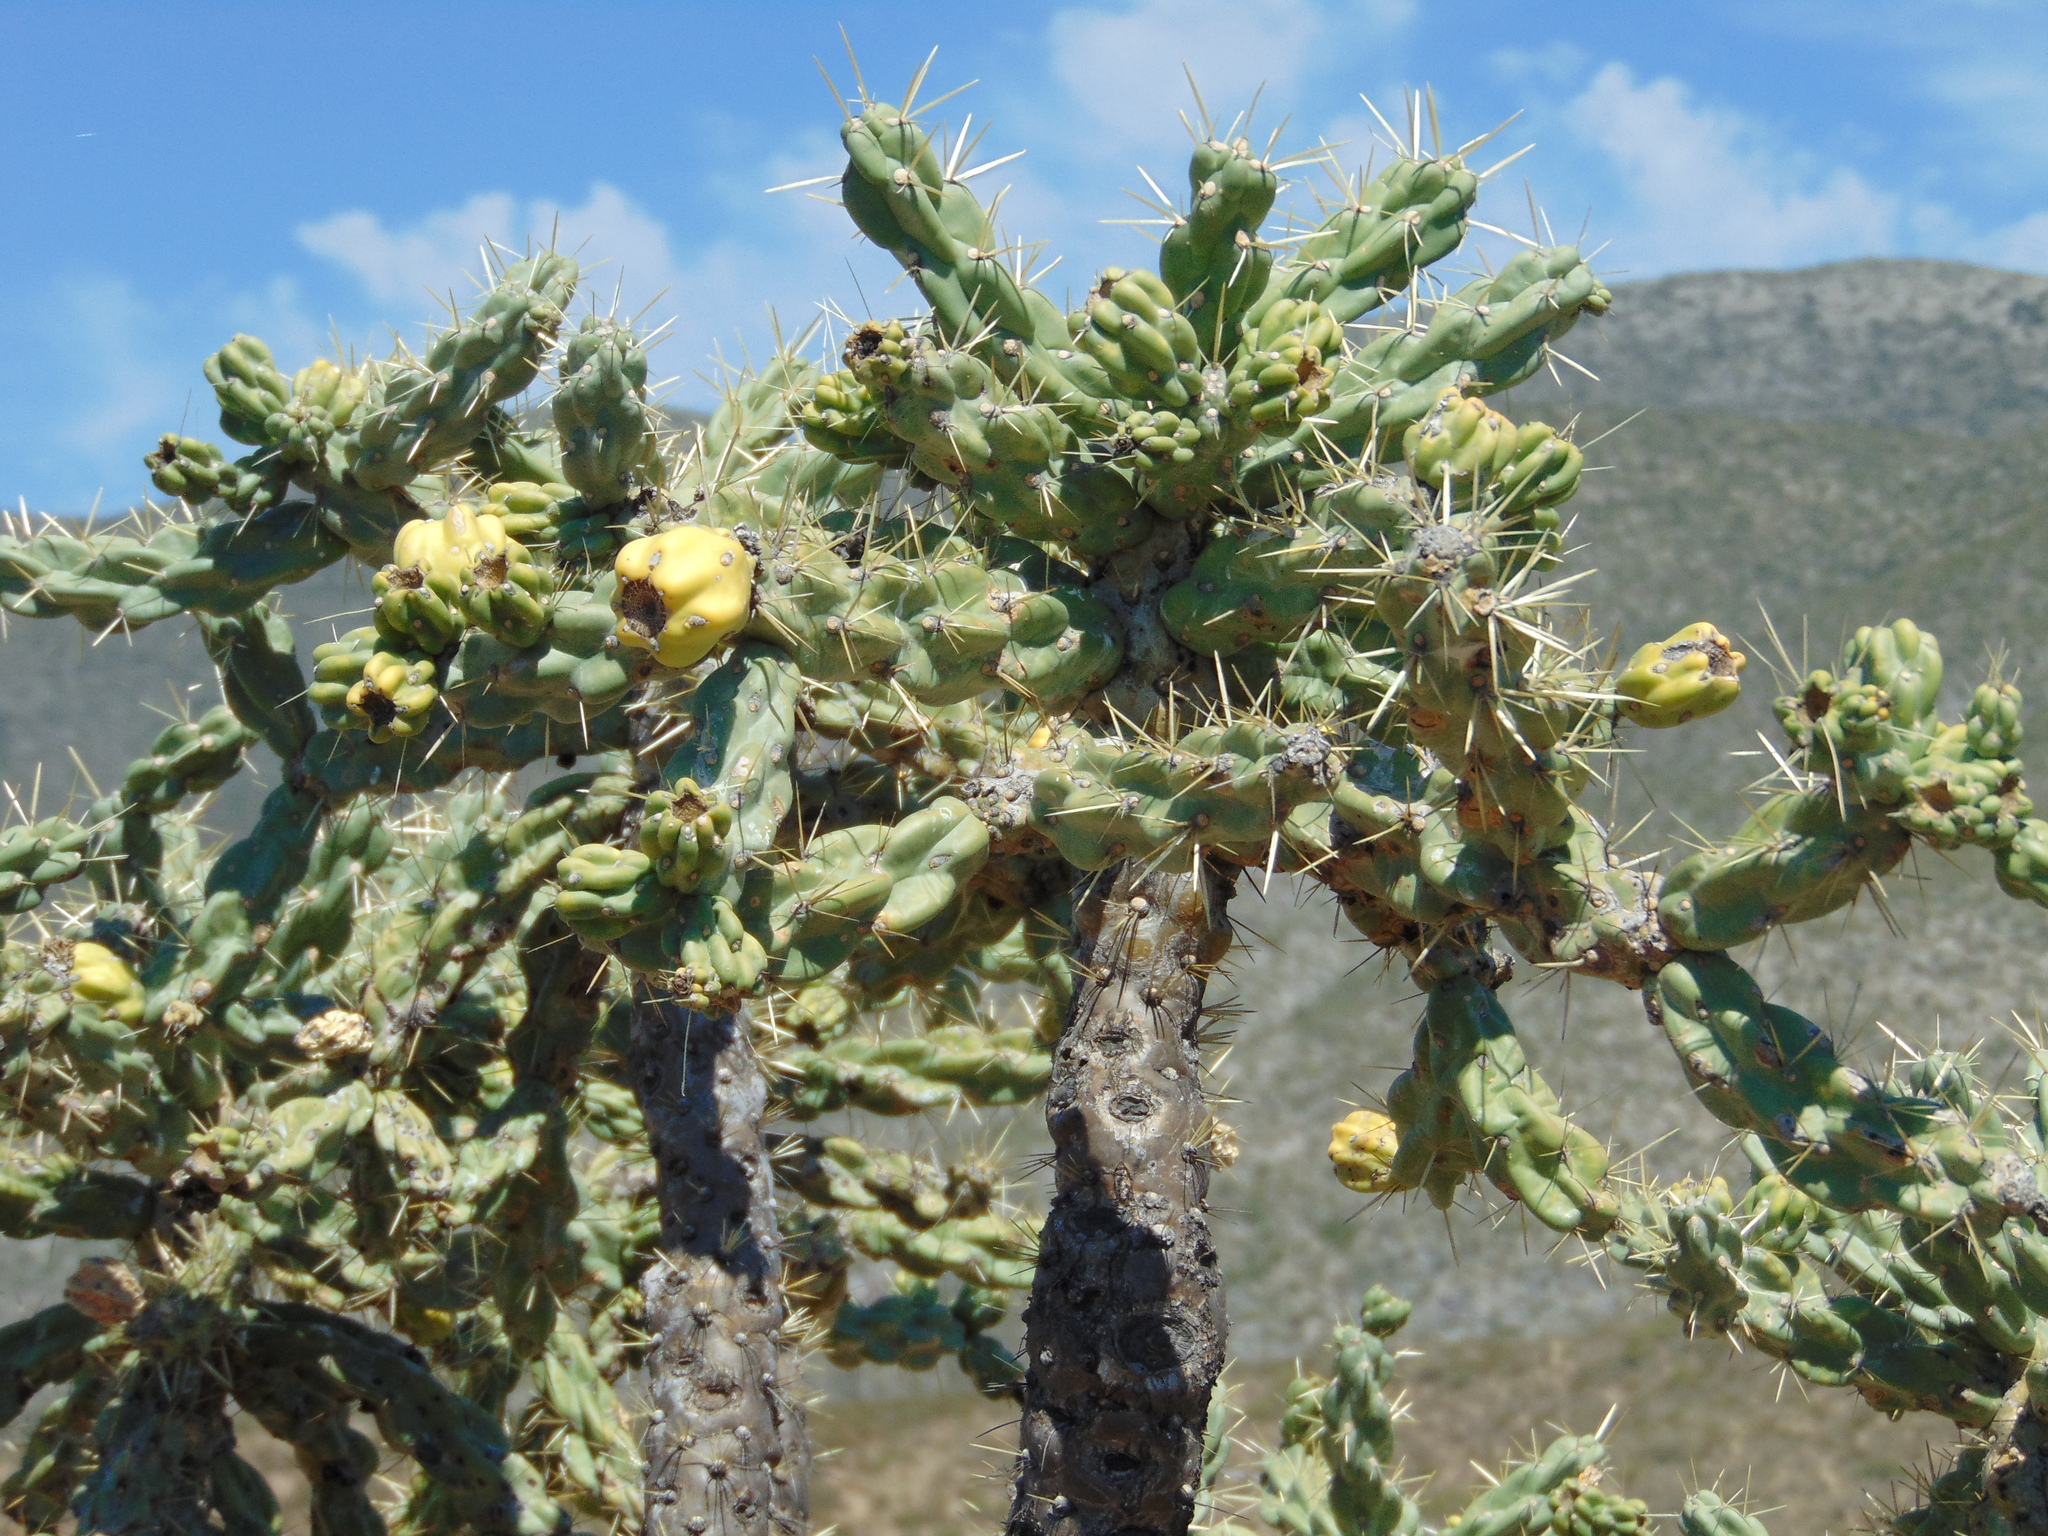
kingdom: Plantae
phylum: Tracheophyta
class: Magnoliopsida
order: Caryophyllales
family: Cactaceae
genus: Cylindropuntia
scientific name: Cylindropuntia imbricata
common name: Candelabrum cactus
